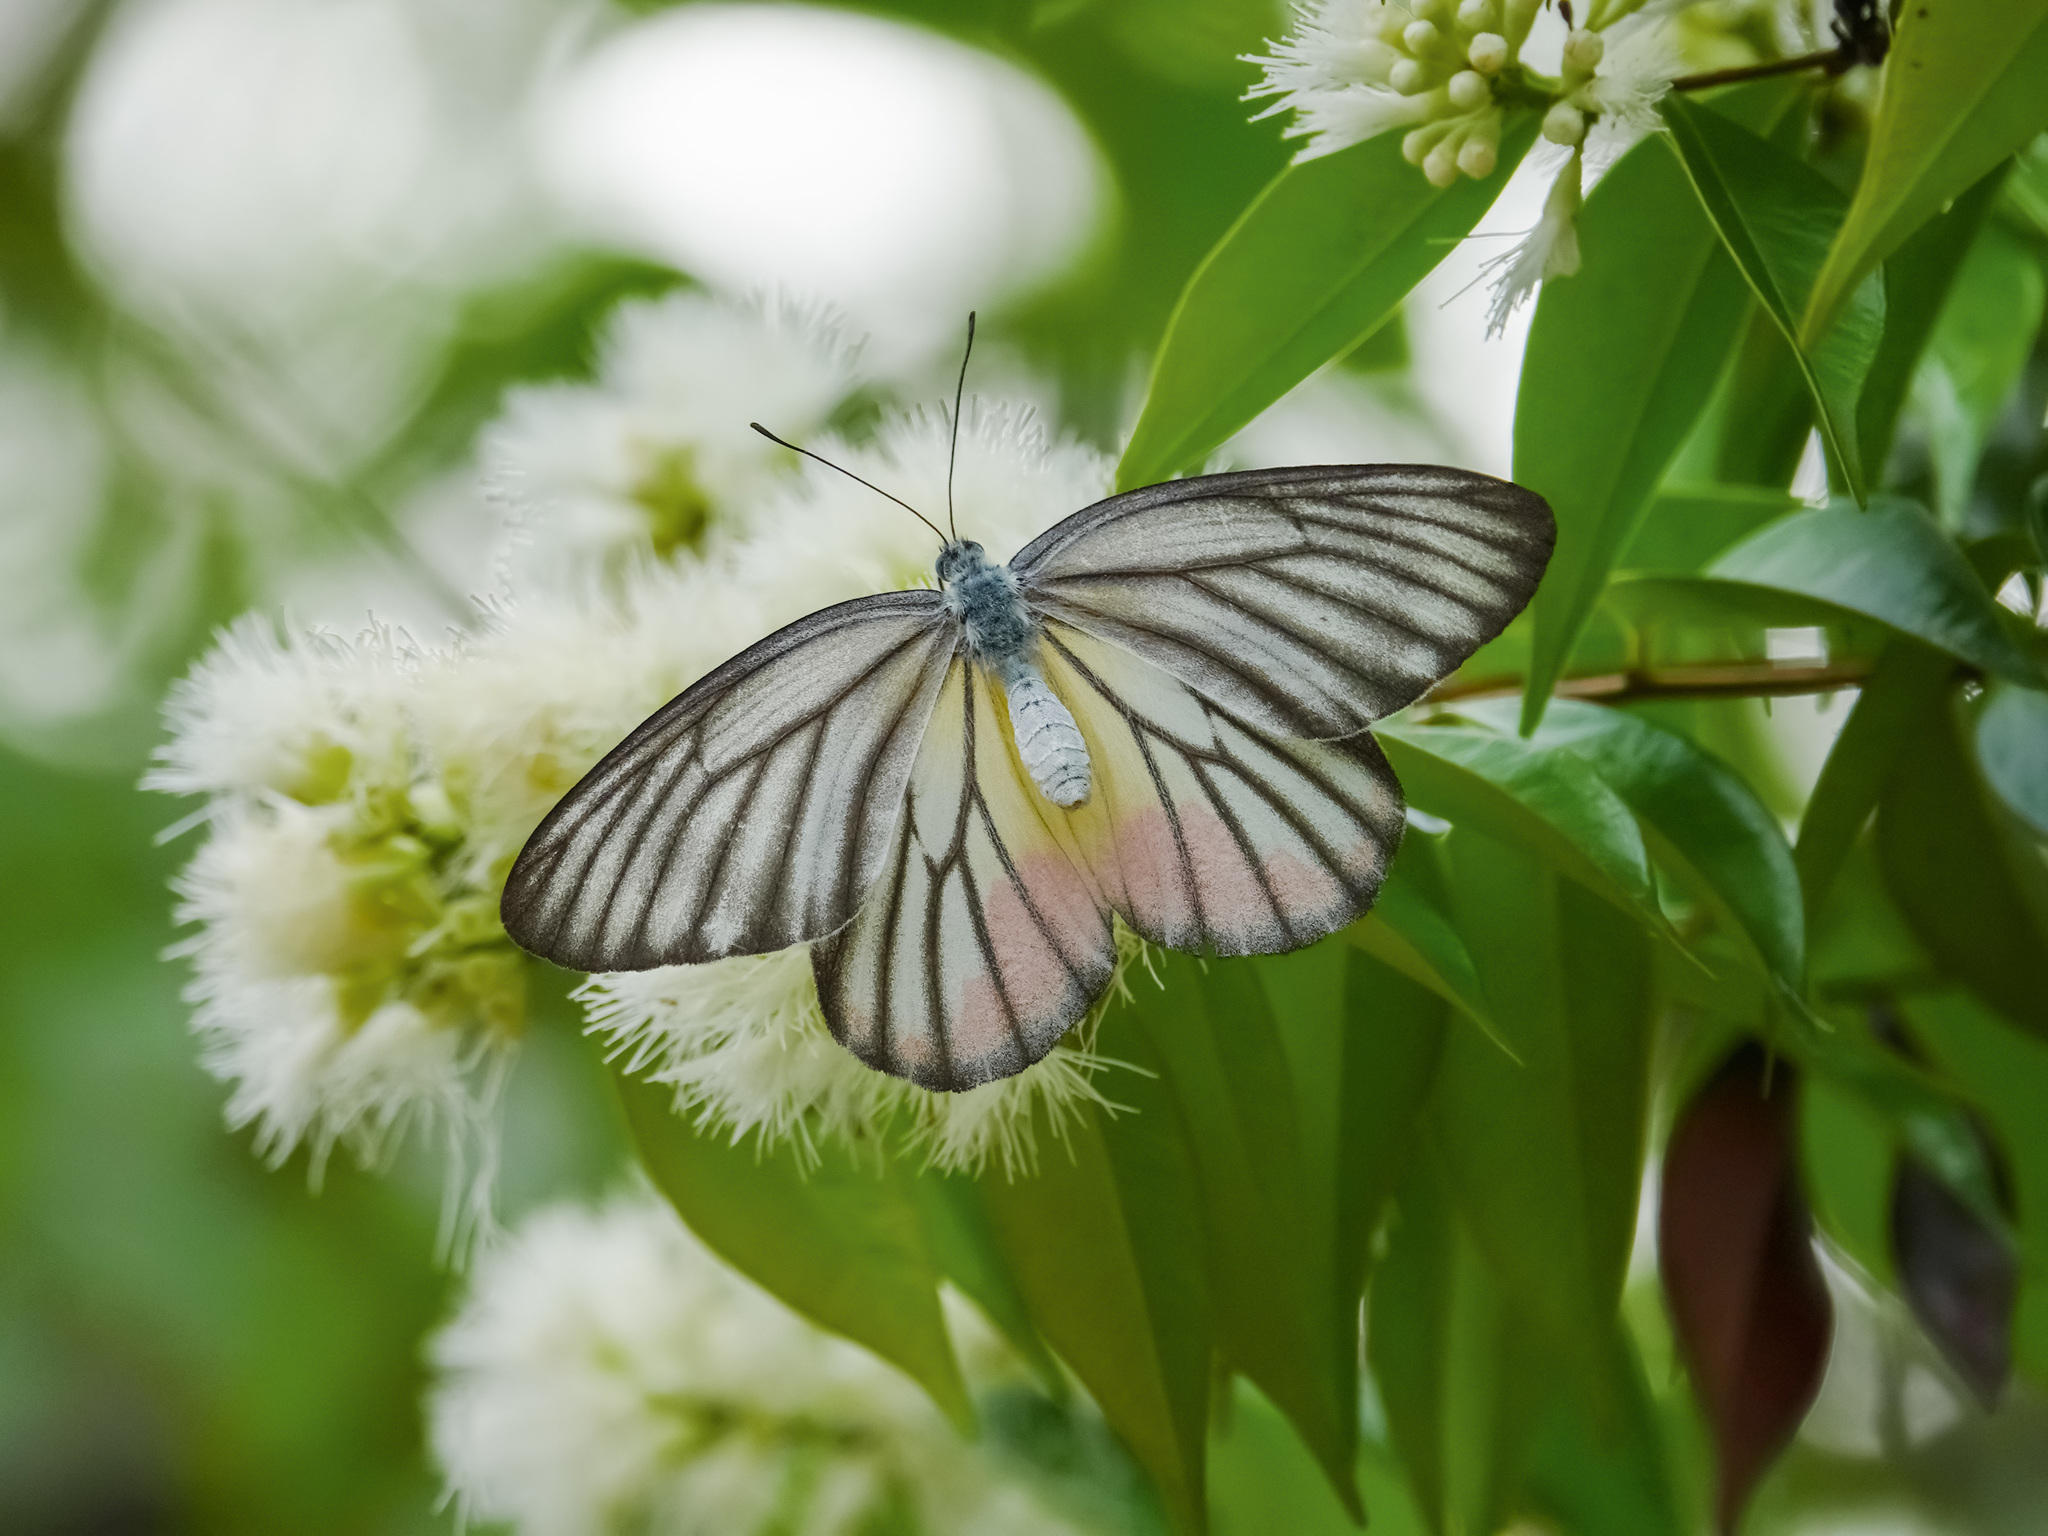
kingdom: Animalia
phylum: Arthropoda
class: Insecta
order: Lepidoptera
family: Pieridae
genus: Delias
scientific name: Delias hyparete
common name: Painted jezebel
